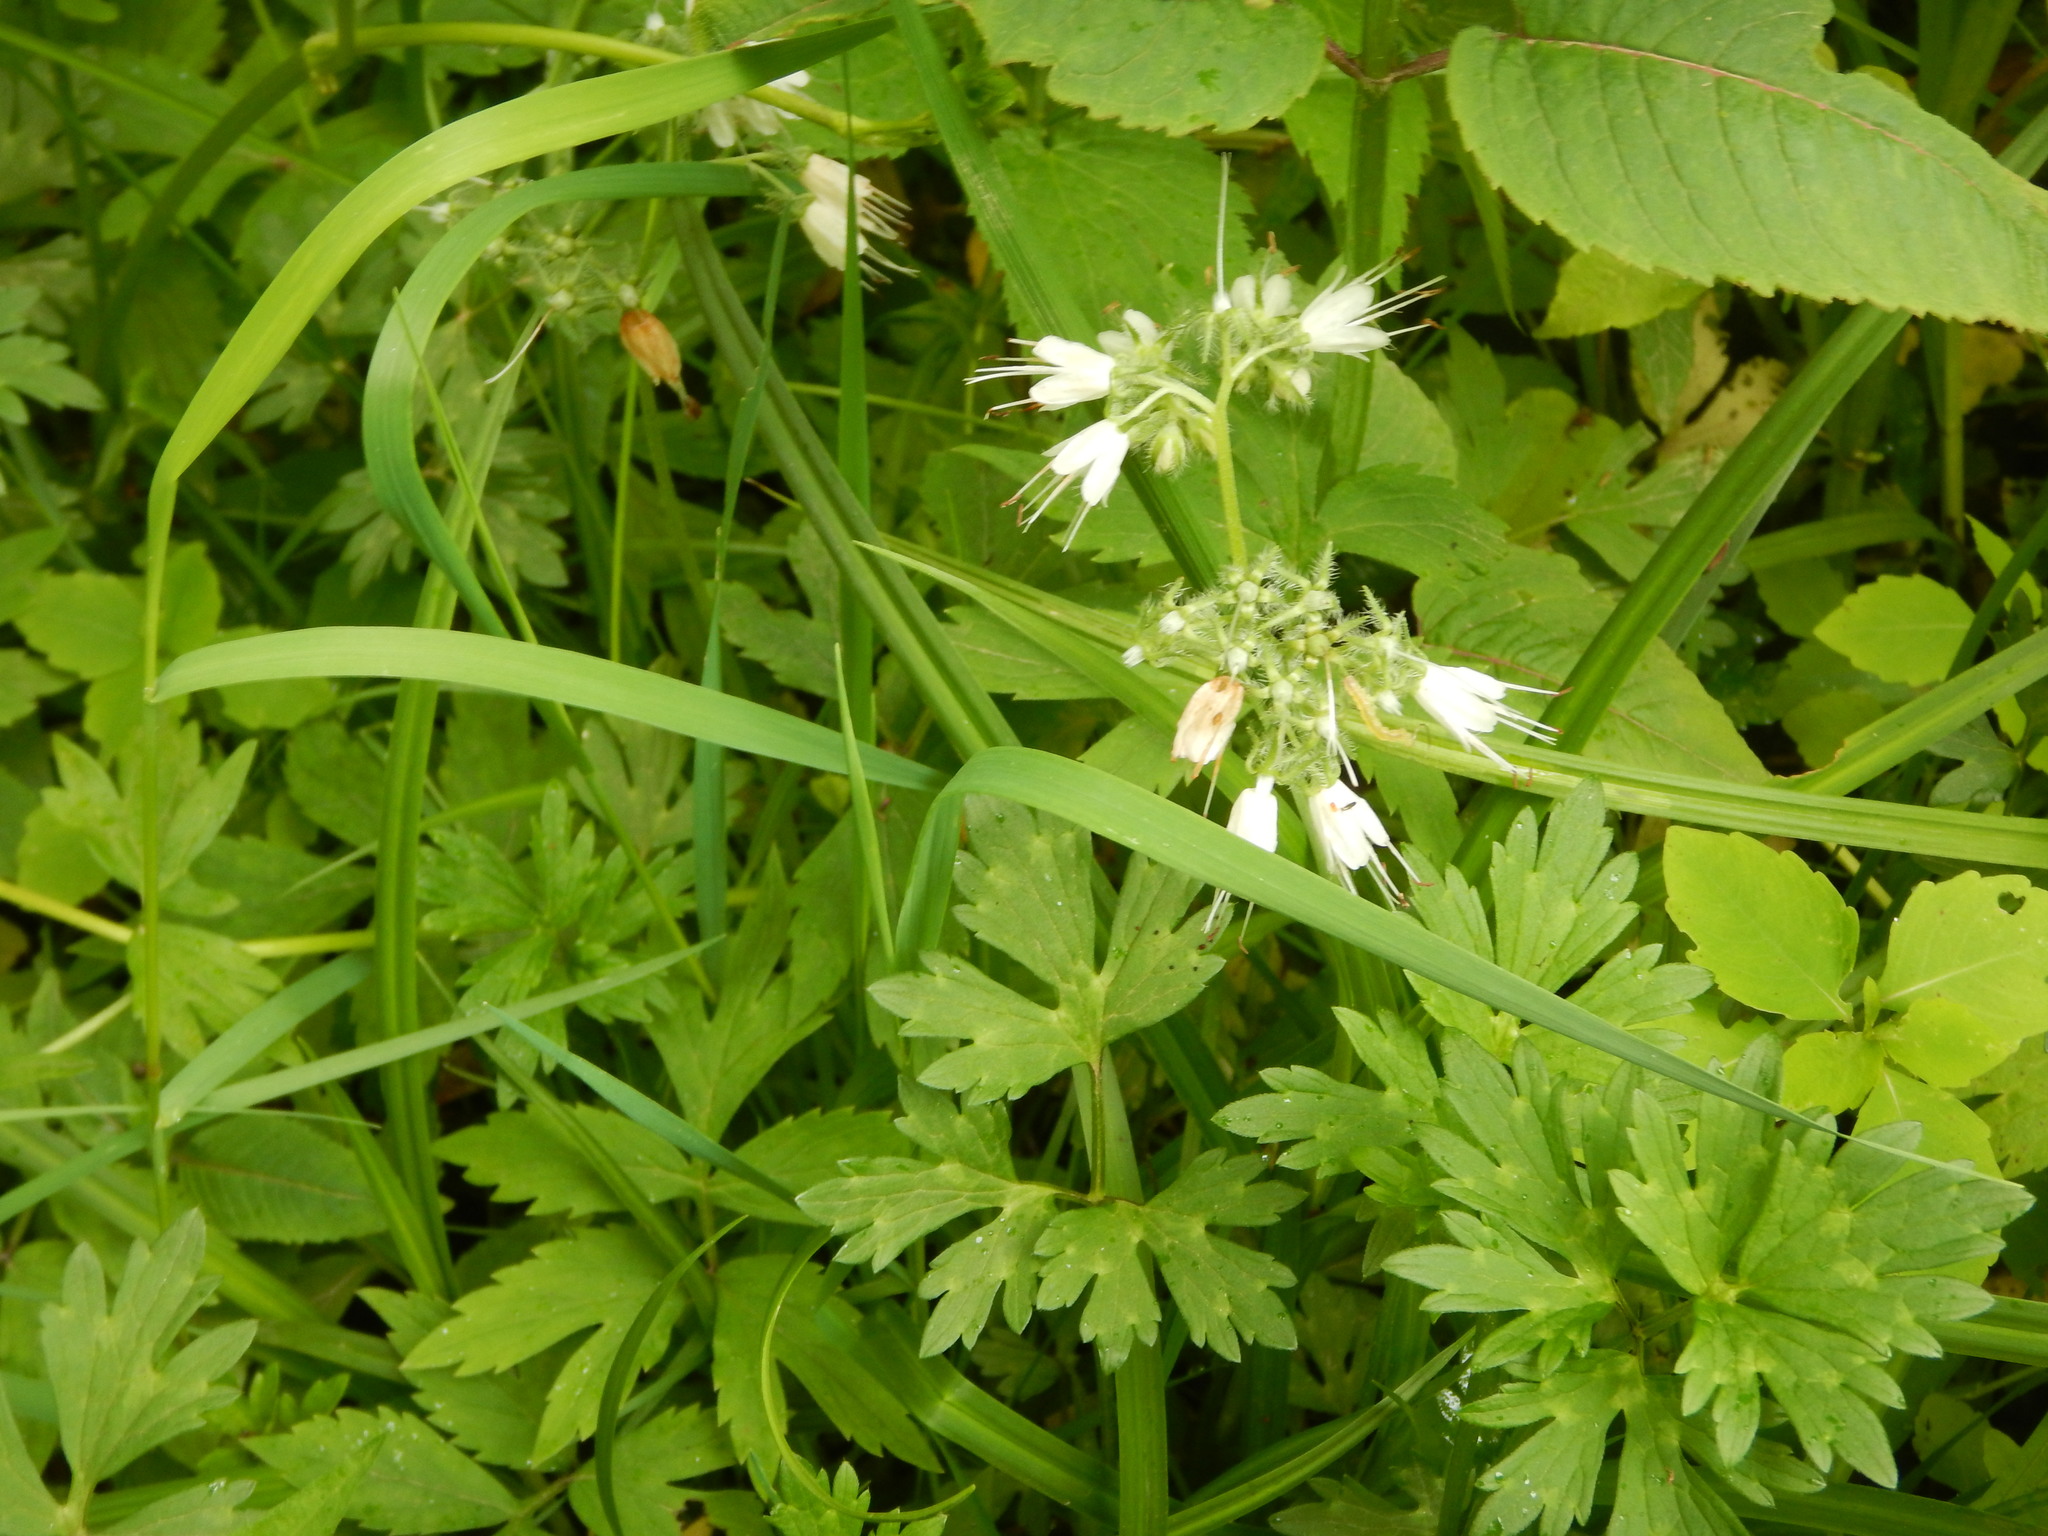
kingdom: Plantae
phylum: Tracheophyta
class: Magnoliopsida
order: Boraginales
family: Hydrophyllaceae
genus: Hydrophyllum
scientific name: Hydrophyllum virginianum
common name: Virginia waterleaf
